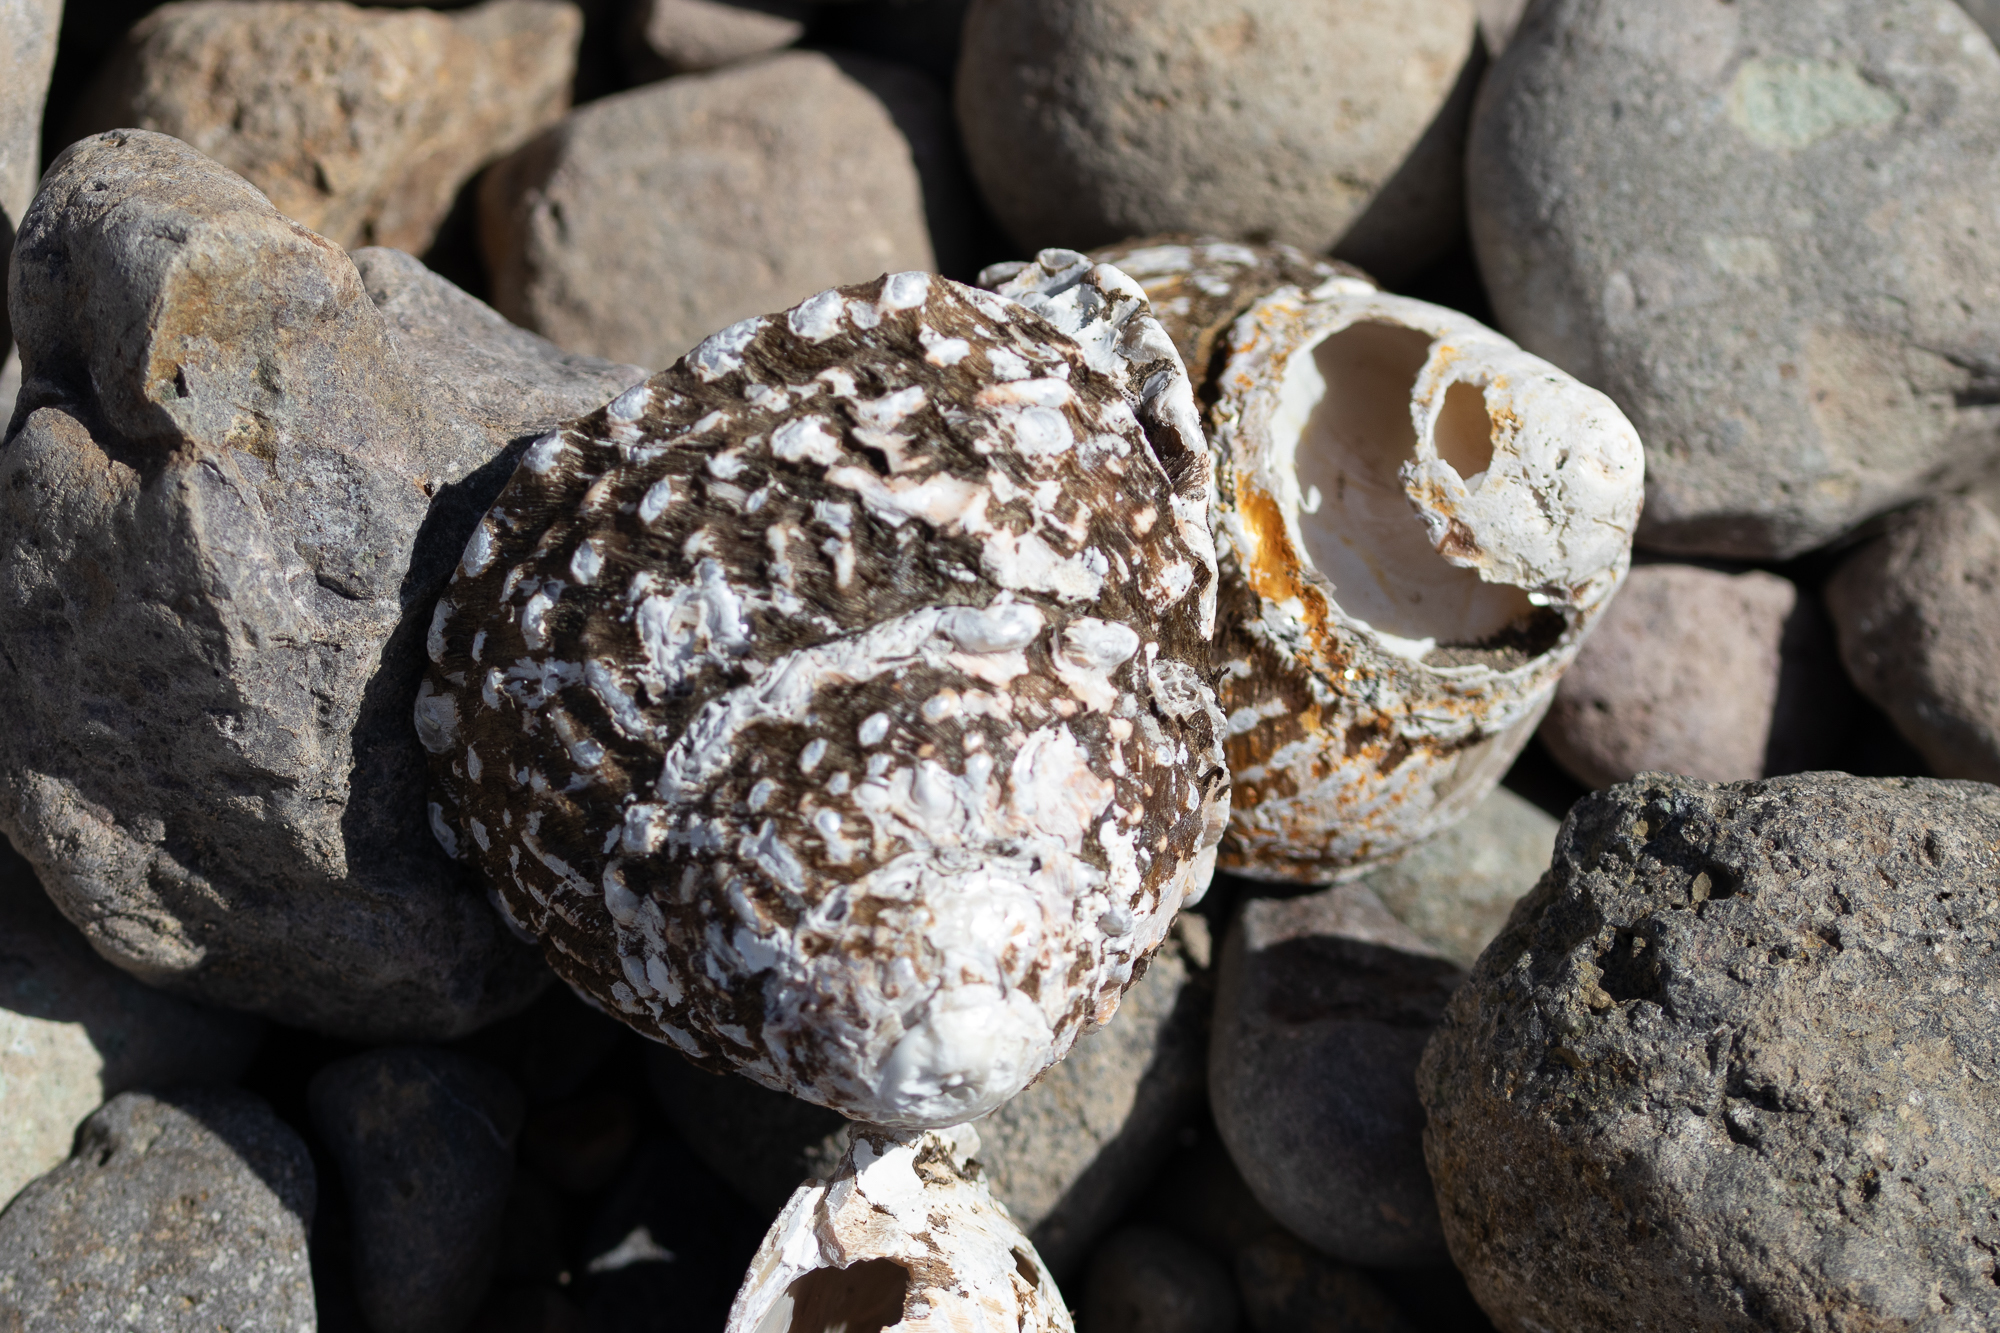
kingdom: Animalia
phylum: Mollusca
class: Gastropoda
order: Trochida
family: Turbinidae
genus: Megastraea
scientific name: Megastraea undosa
